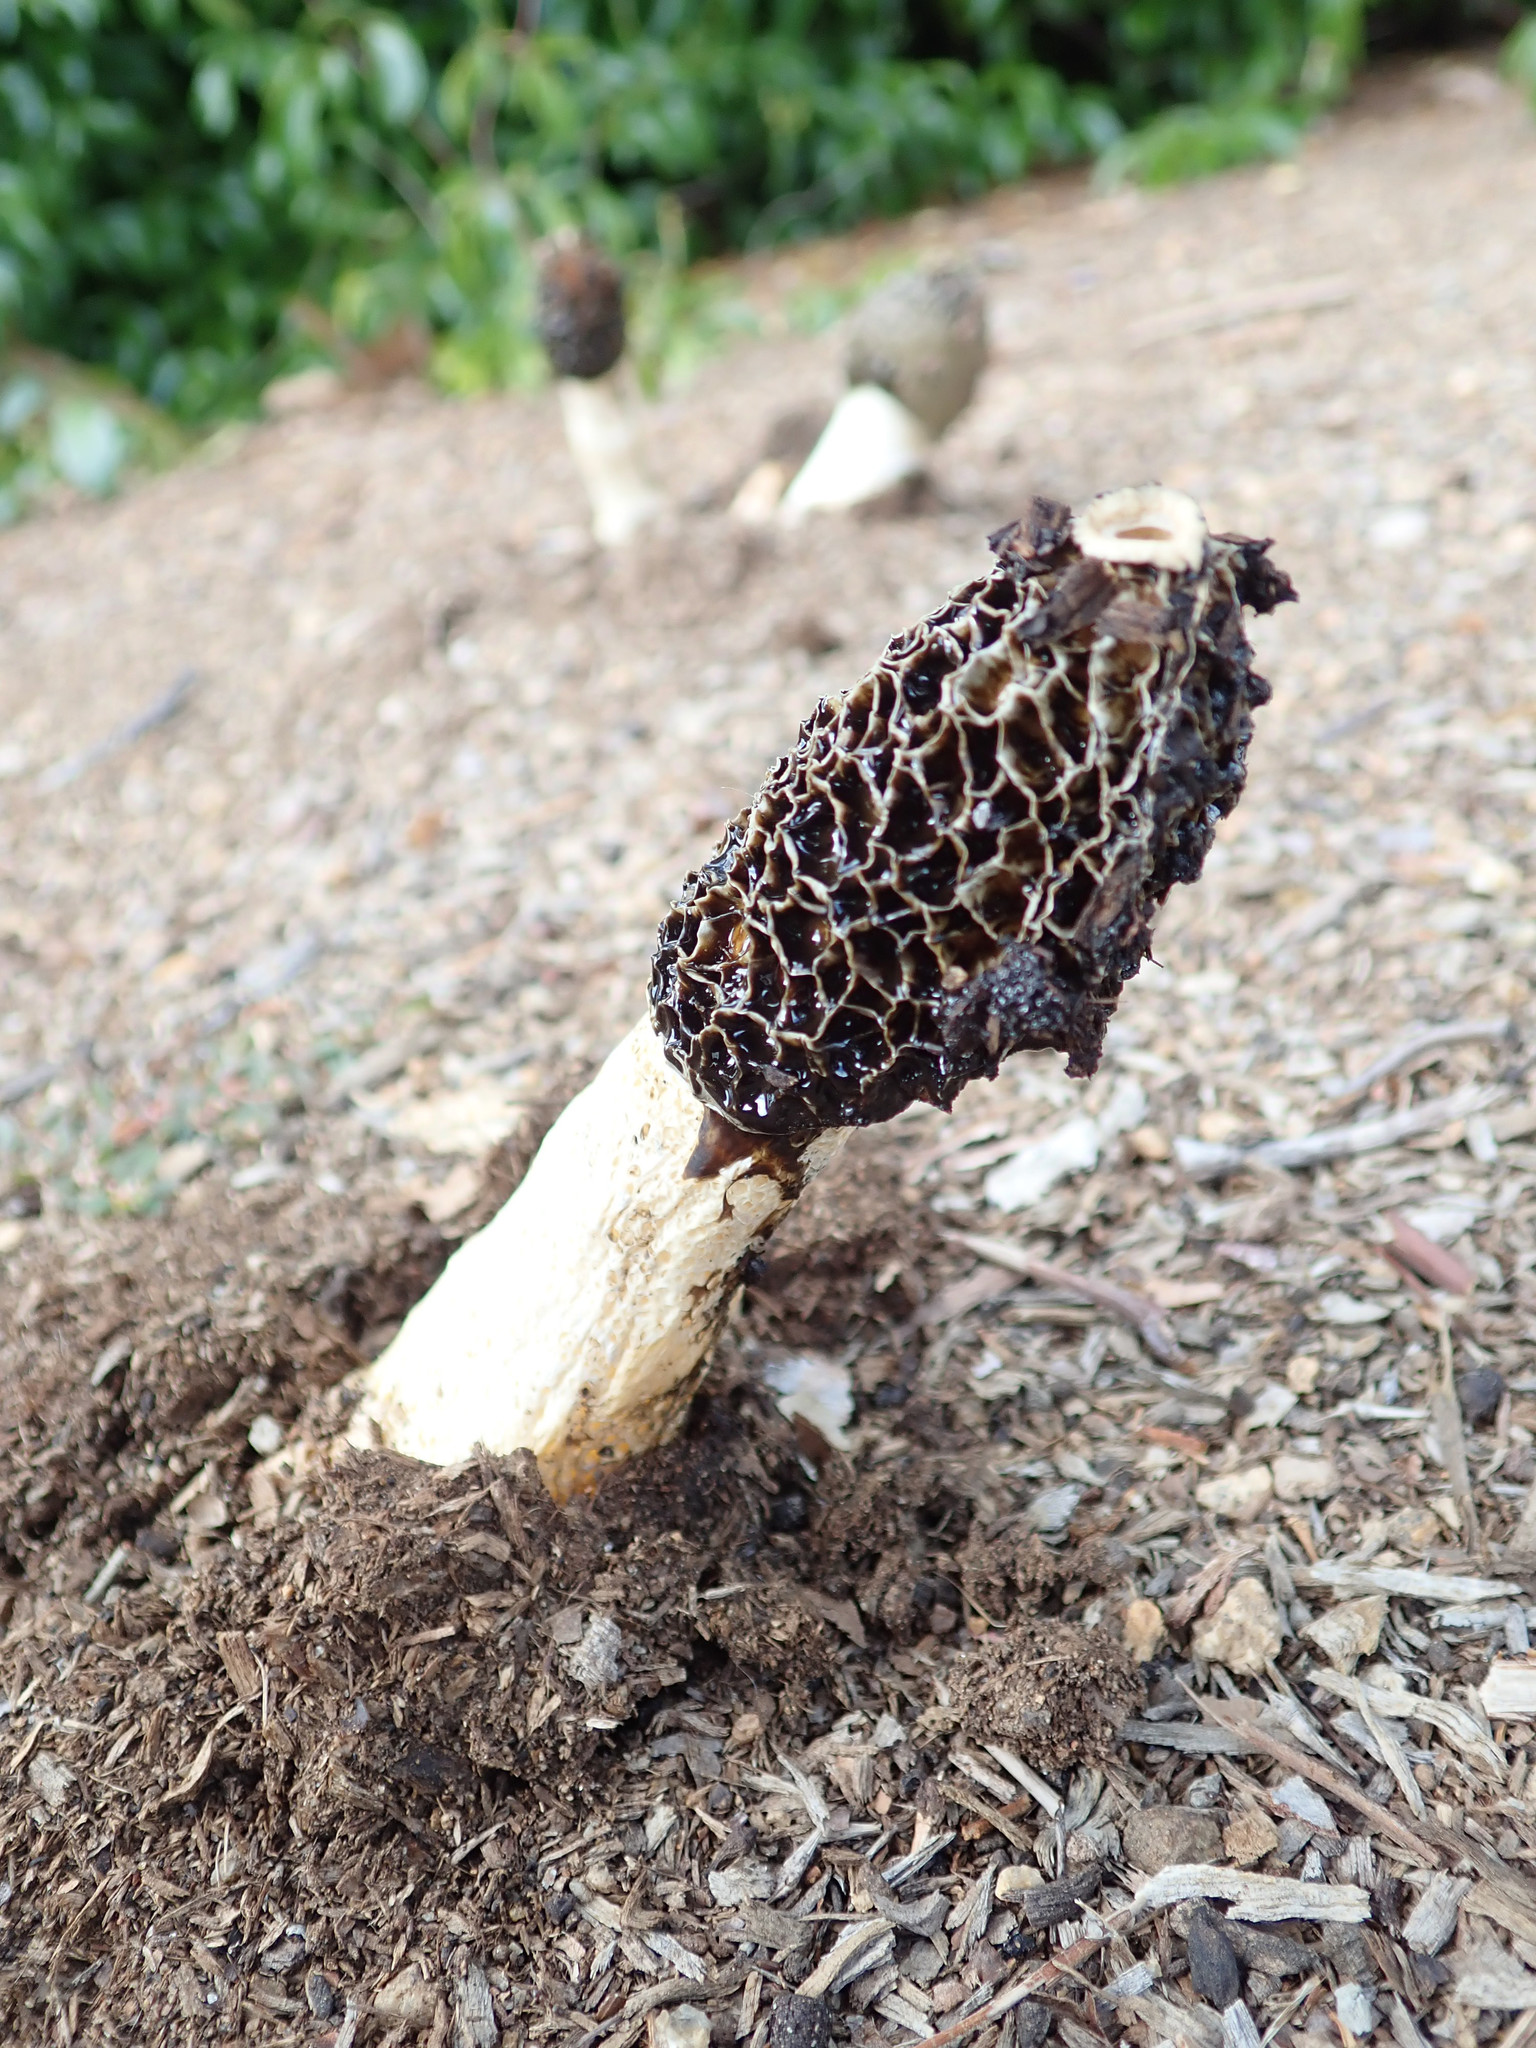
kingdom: Fungi
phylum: Basidiomycota
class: Agaricomycetes
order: Phallales
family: Phallaceae
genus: Phallus
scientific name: Phallus hadriani
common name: Sand stinkhorn
